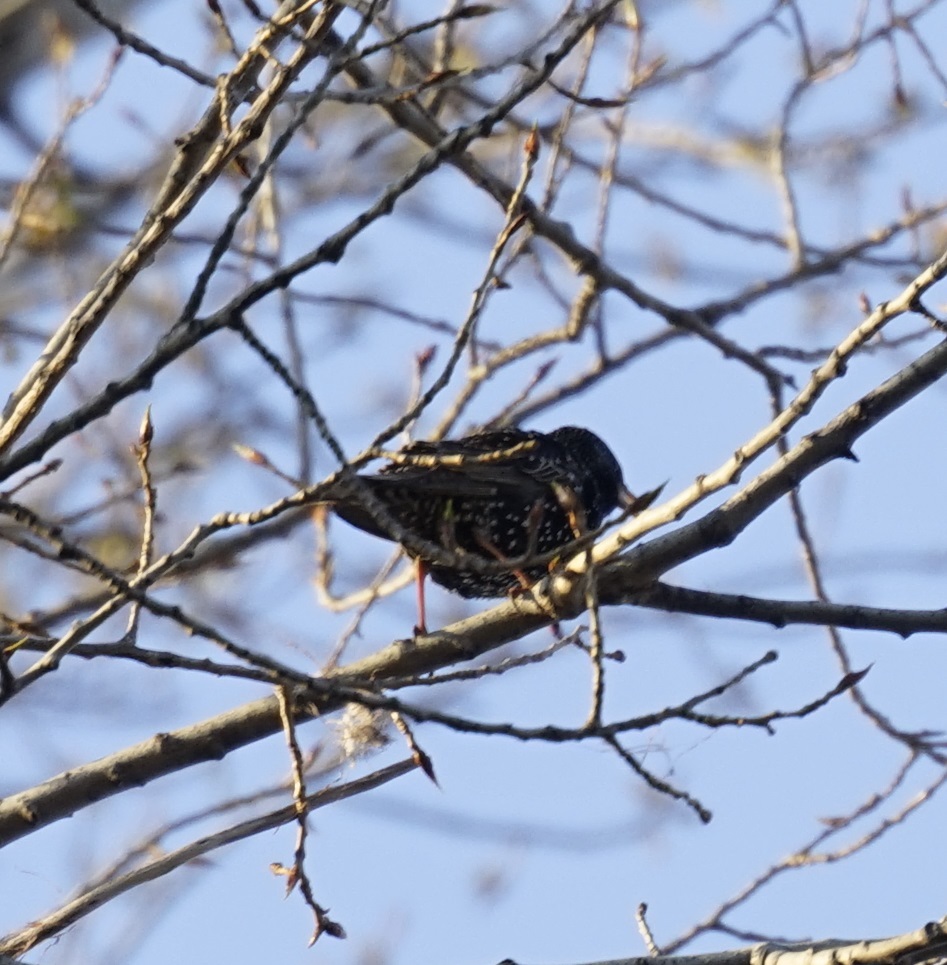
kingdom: Animalia
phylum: Chordata
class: Aves
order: Passeriformes
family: Sturnidae
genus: Sturnus
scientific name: Sturnus vulgaris
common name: Common starling
